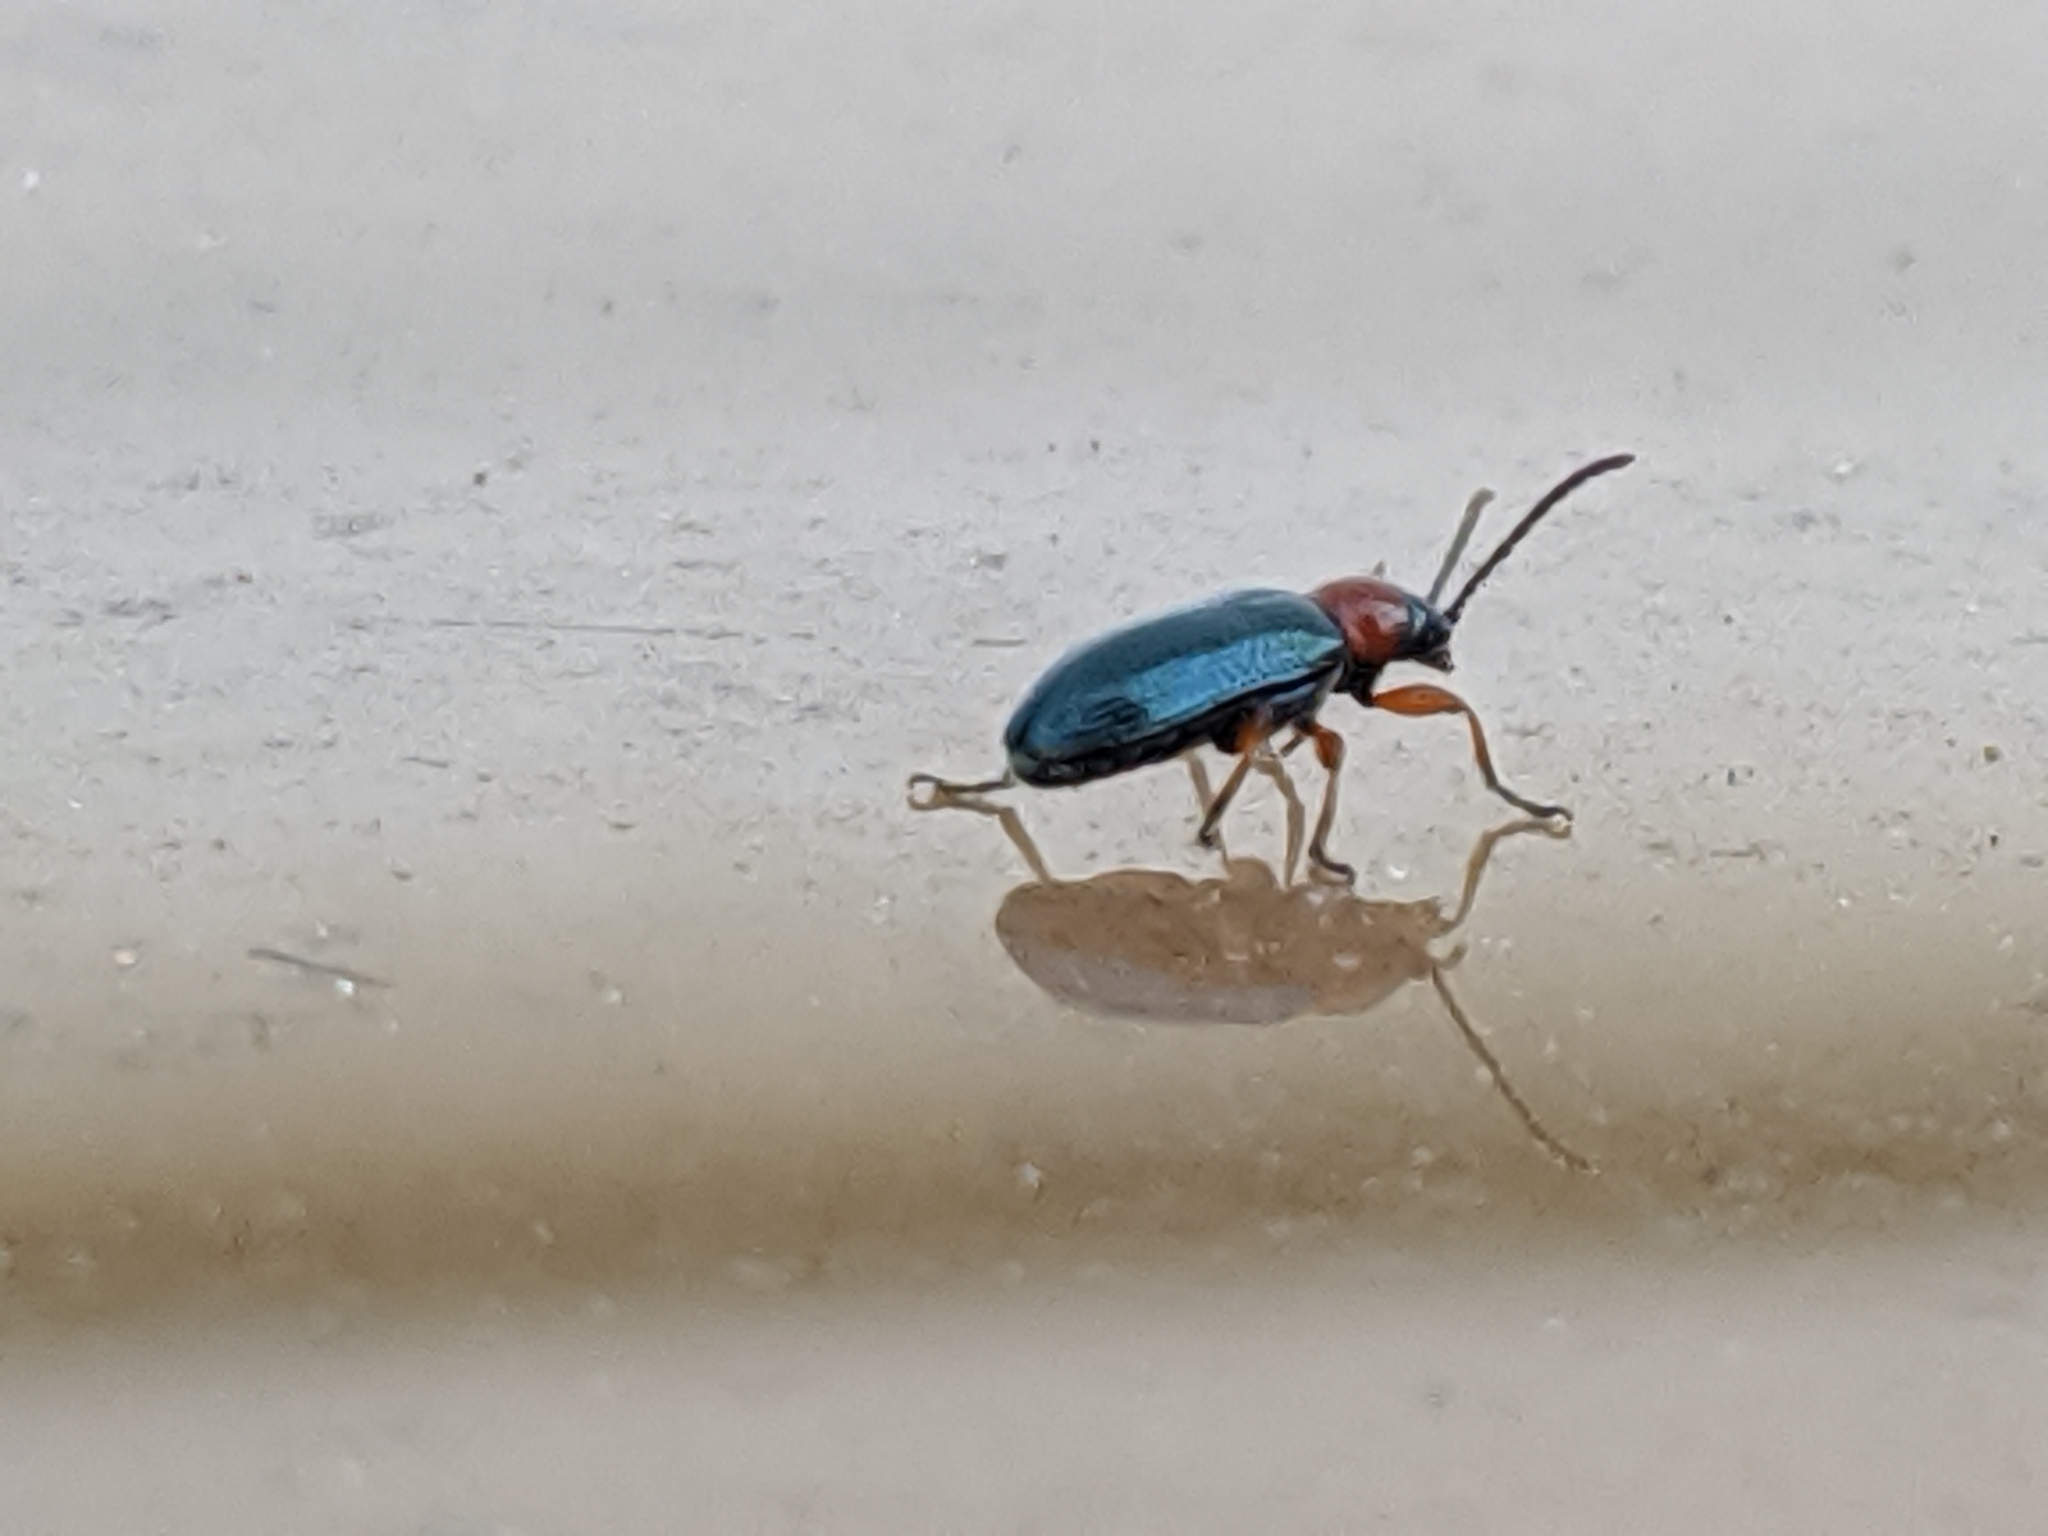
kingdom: Animalia
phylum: Arthropoda
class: Insecta
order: Coleoptera
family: Chrysomelidae
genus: Oulema
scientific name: Oulema melanopus
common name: Cereal leaf beetle
